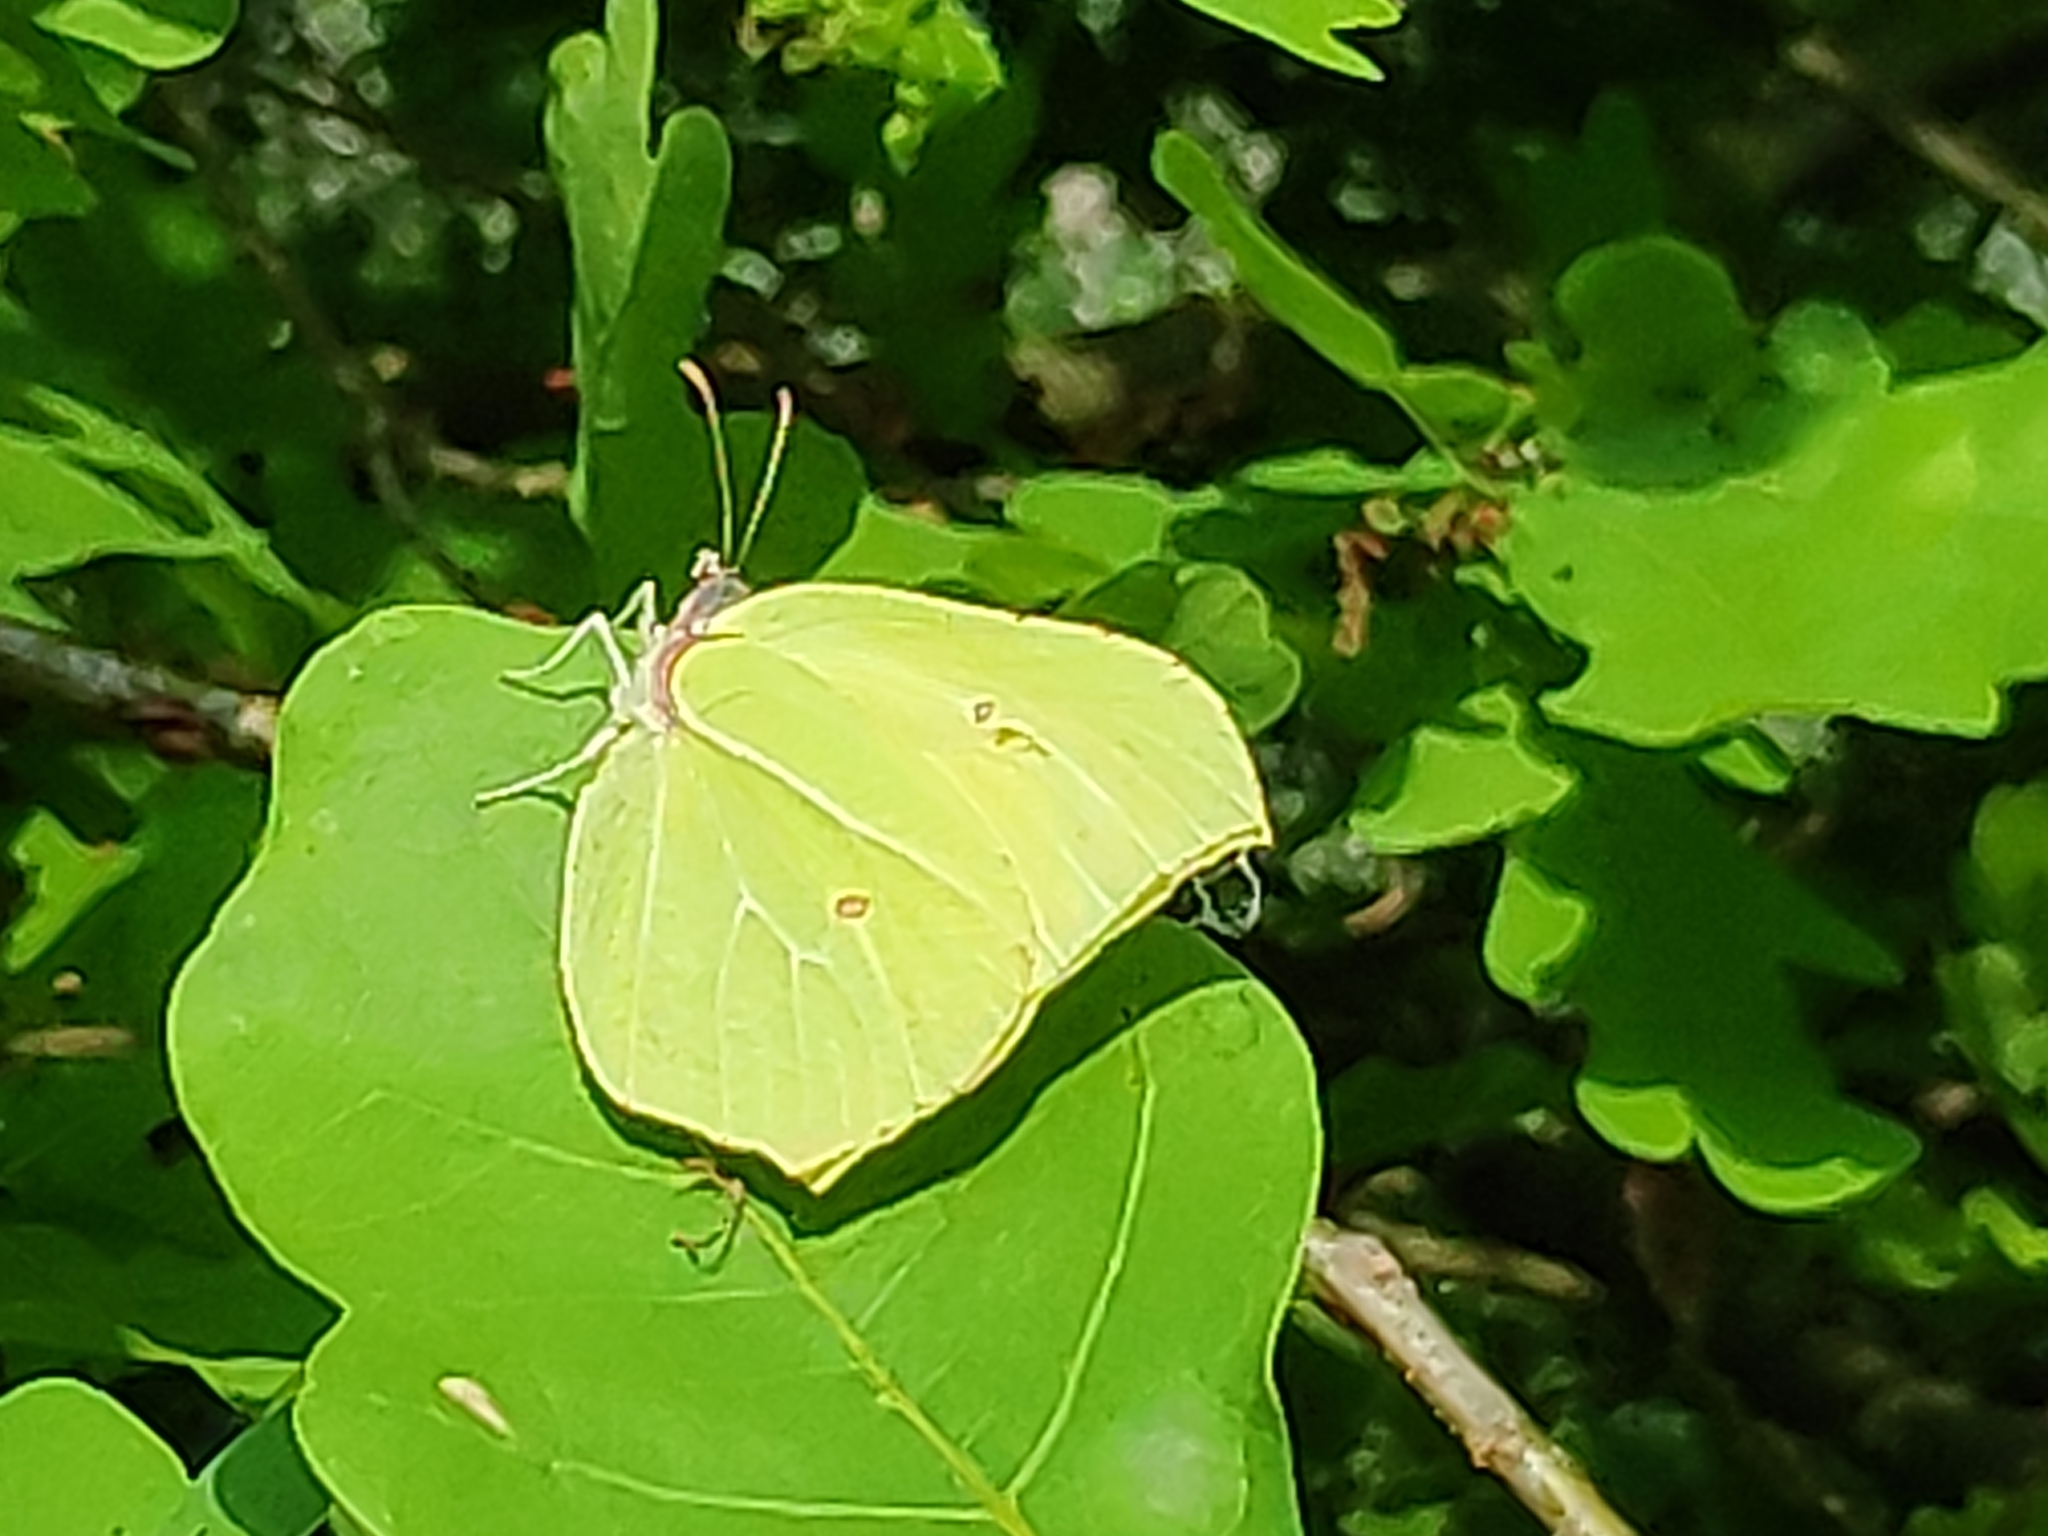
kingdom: Animalia
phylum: Arthropoda
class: Insecta
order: Lepidoptera
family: Pieridae
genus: Gonepteryx
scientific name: Gonepteryx rhamni
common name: Brimstone
